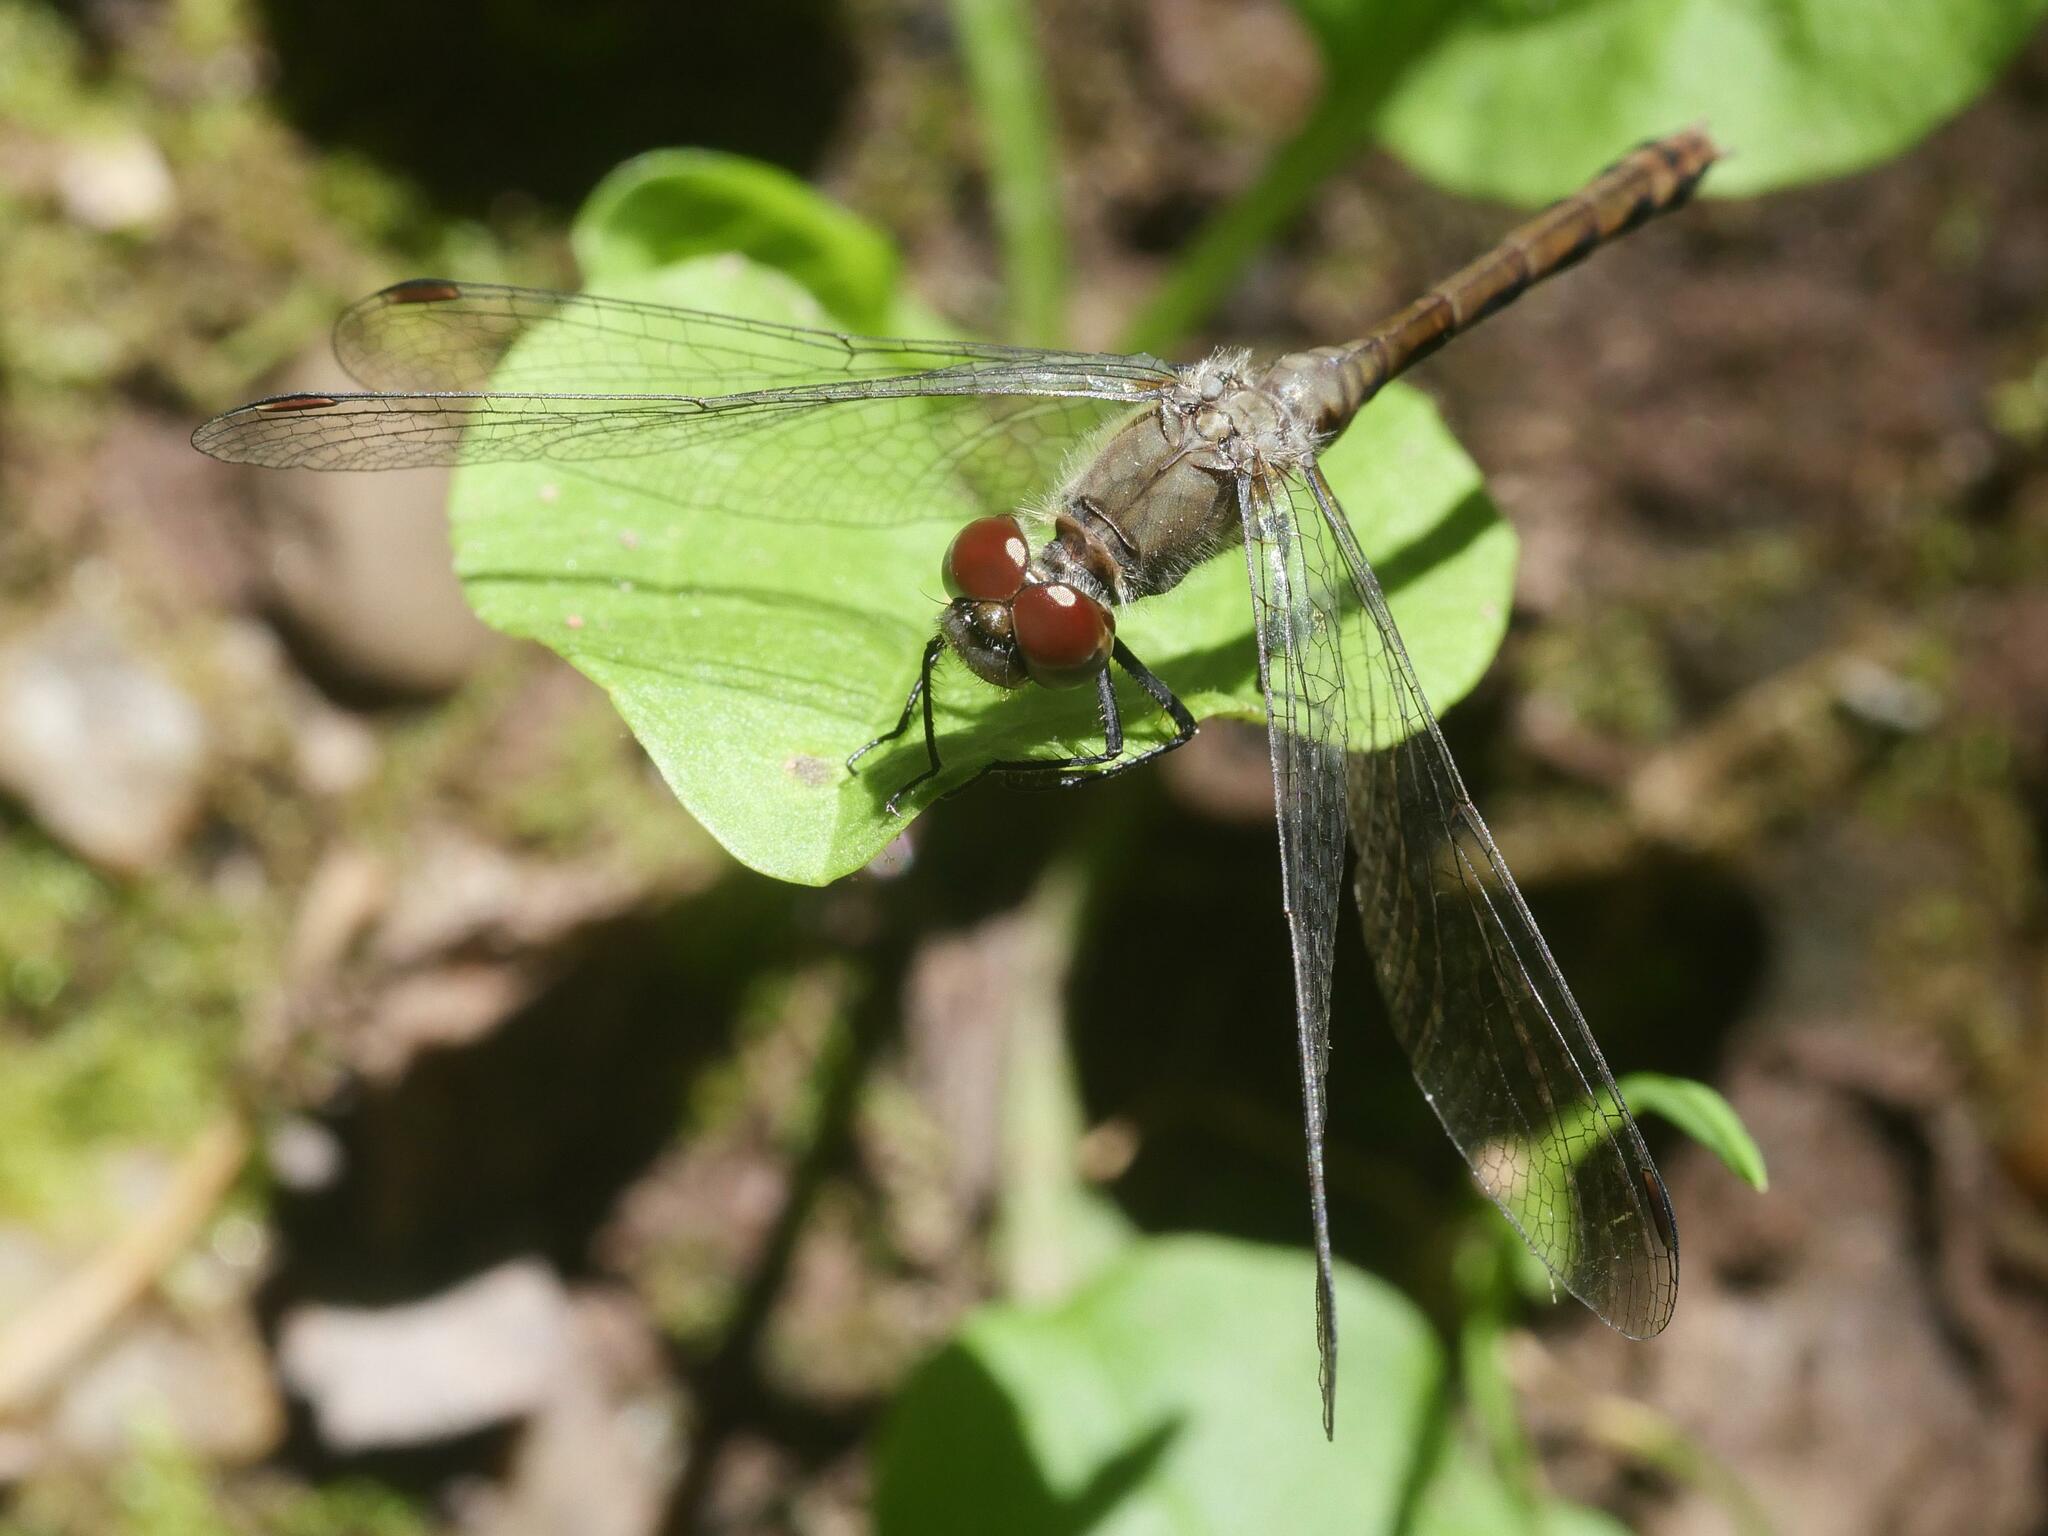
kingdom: Animalia
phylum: Arthropoda
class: Insecta
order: Odonata
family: Libellulidae
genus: Sympetrum
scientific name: Sympetrum obtrusum
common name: White-faced meadowhawk
